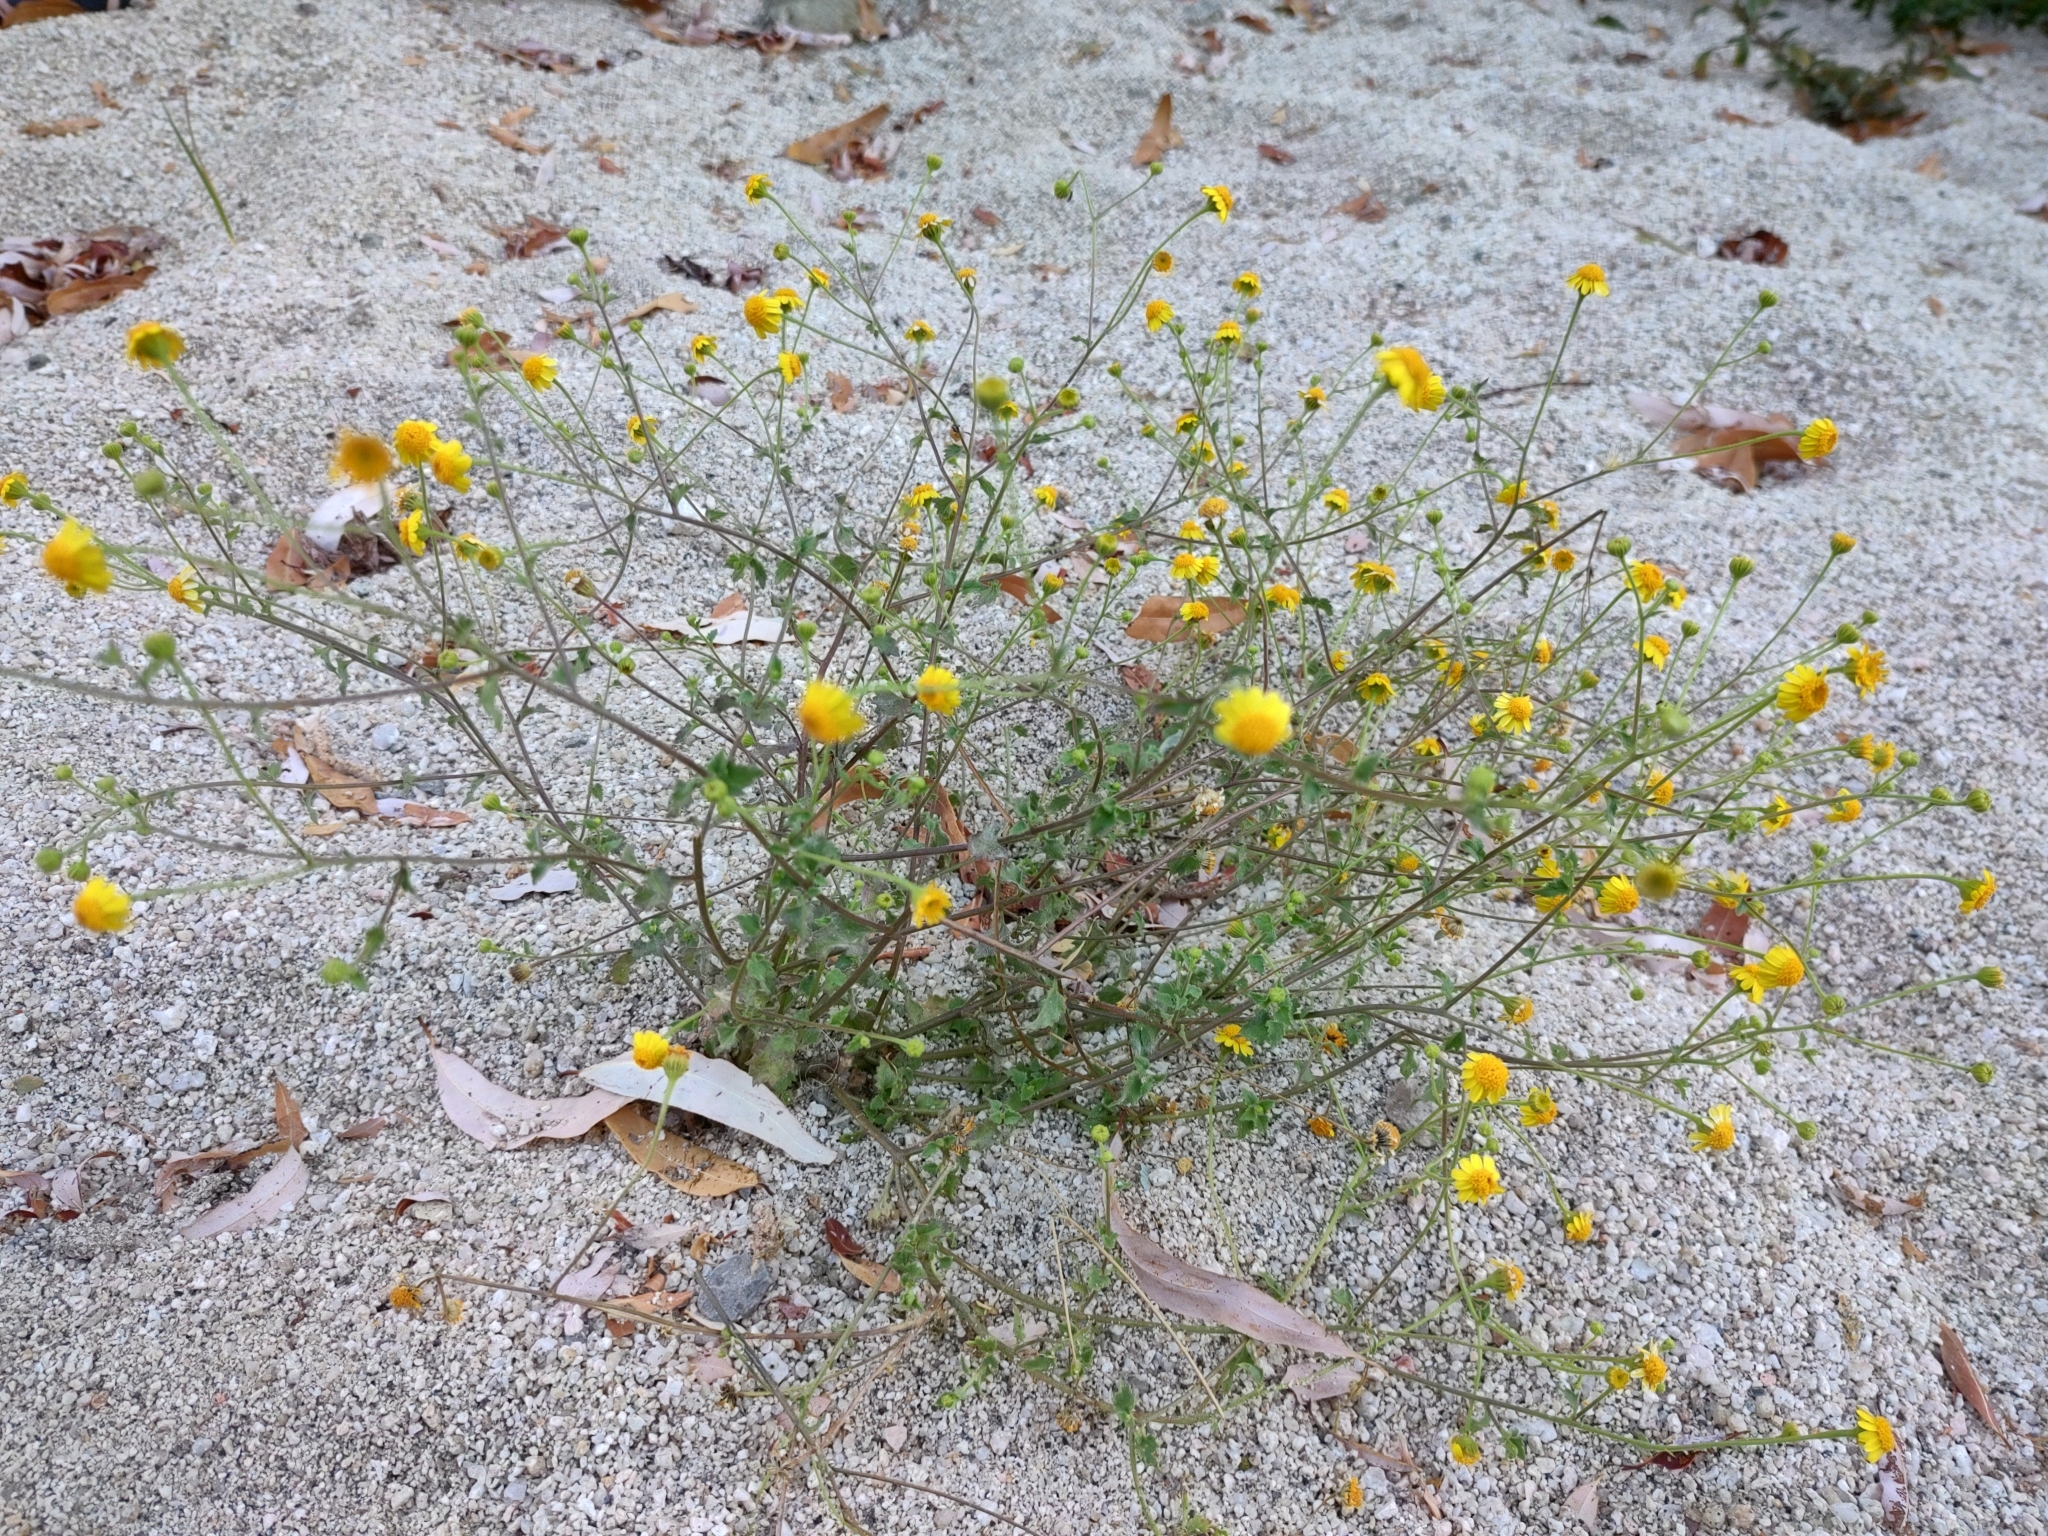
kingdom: Plantae
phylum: Tracheophyta
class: Magnoliopsida
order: Asterales
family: Asteraceae
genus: Perityle
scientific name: Perityle cuneata
